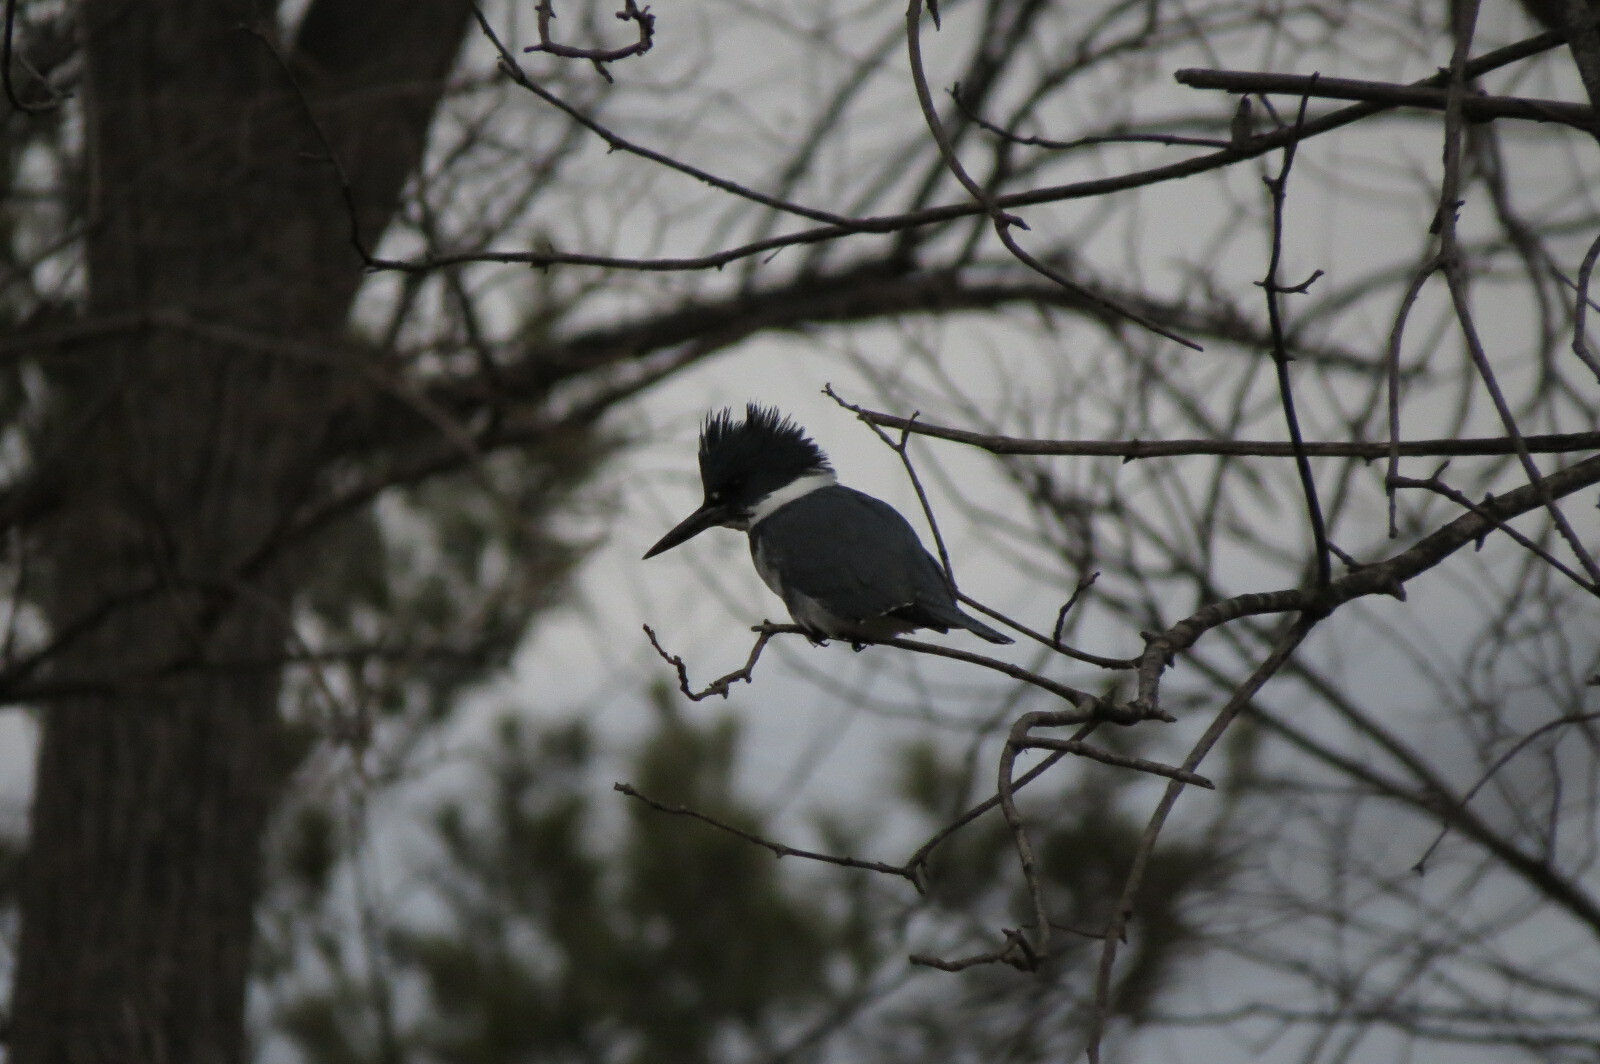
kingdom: Animalia
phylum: Chordata
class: Aves
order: Coraciiformes
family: Alcedinidae
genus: Megaceryle
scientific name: Megaceryle alcyon
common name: Belted kingfisher
